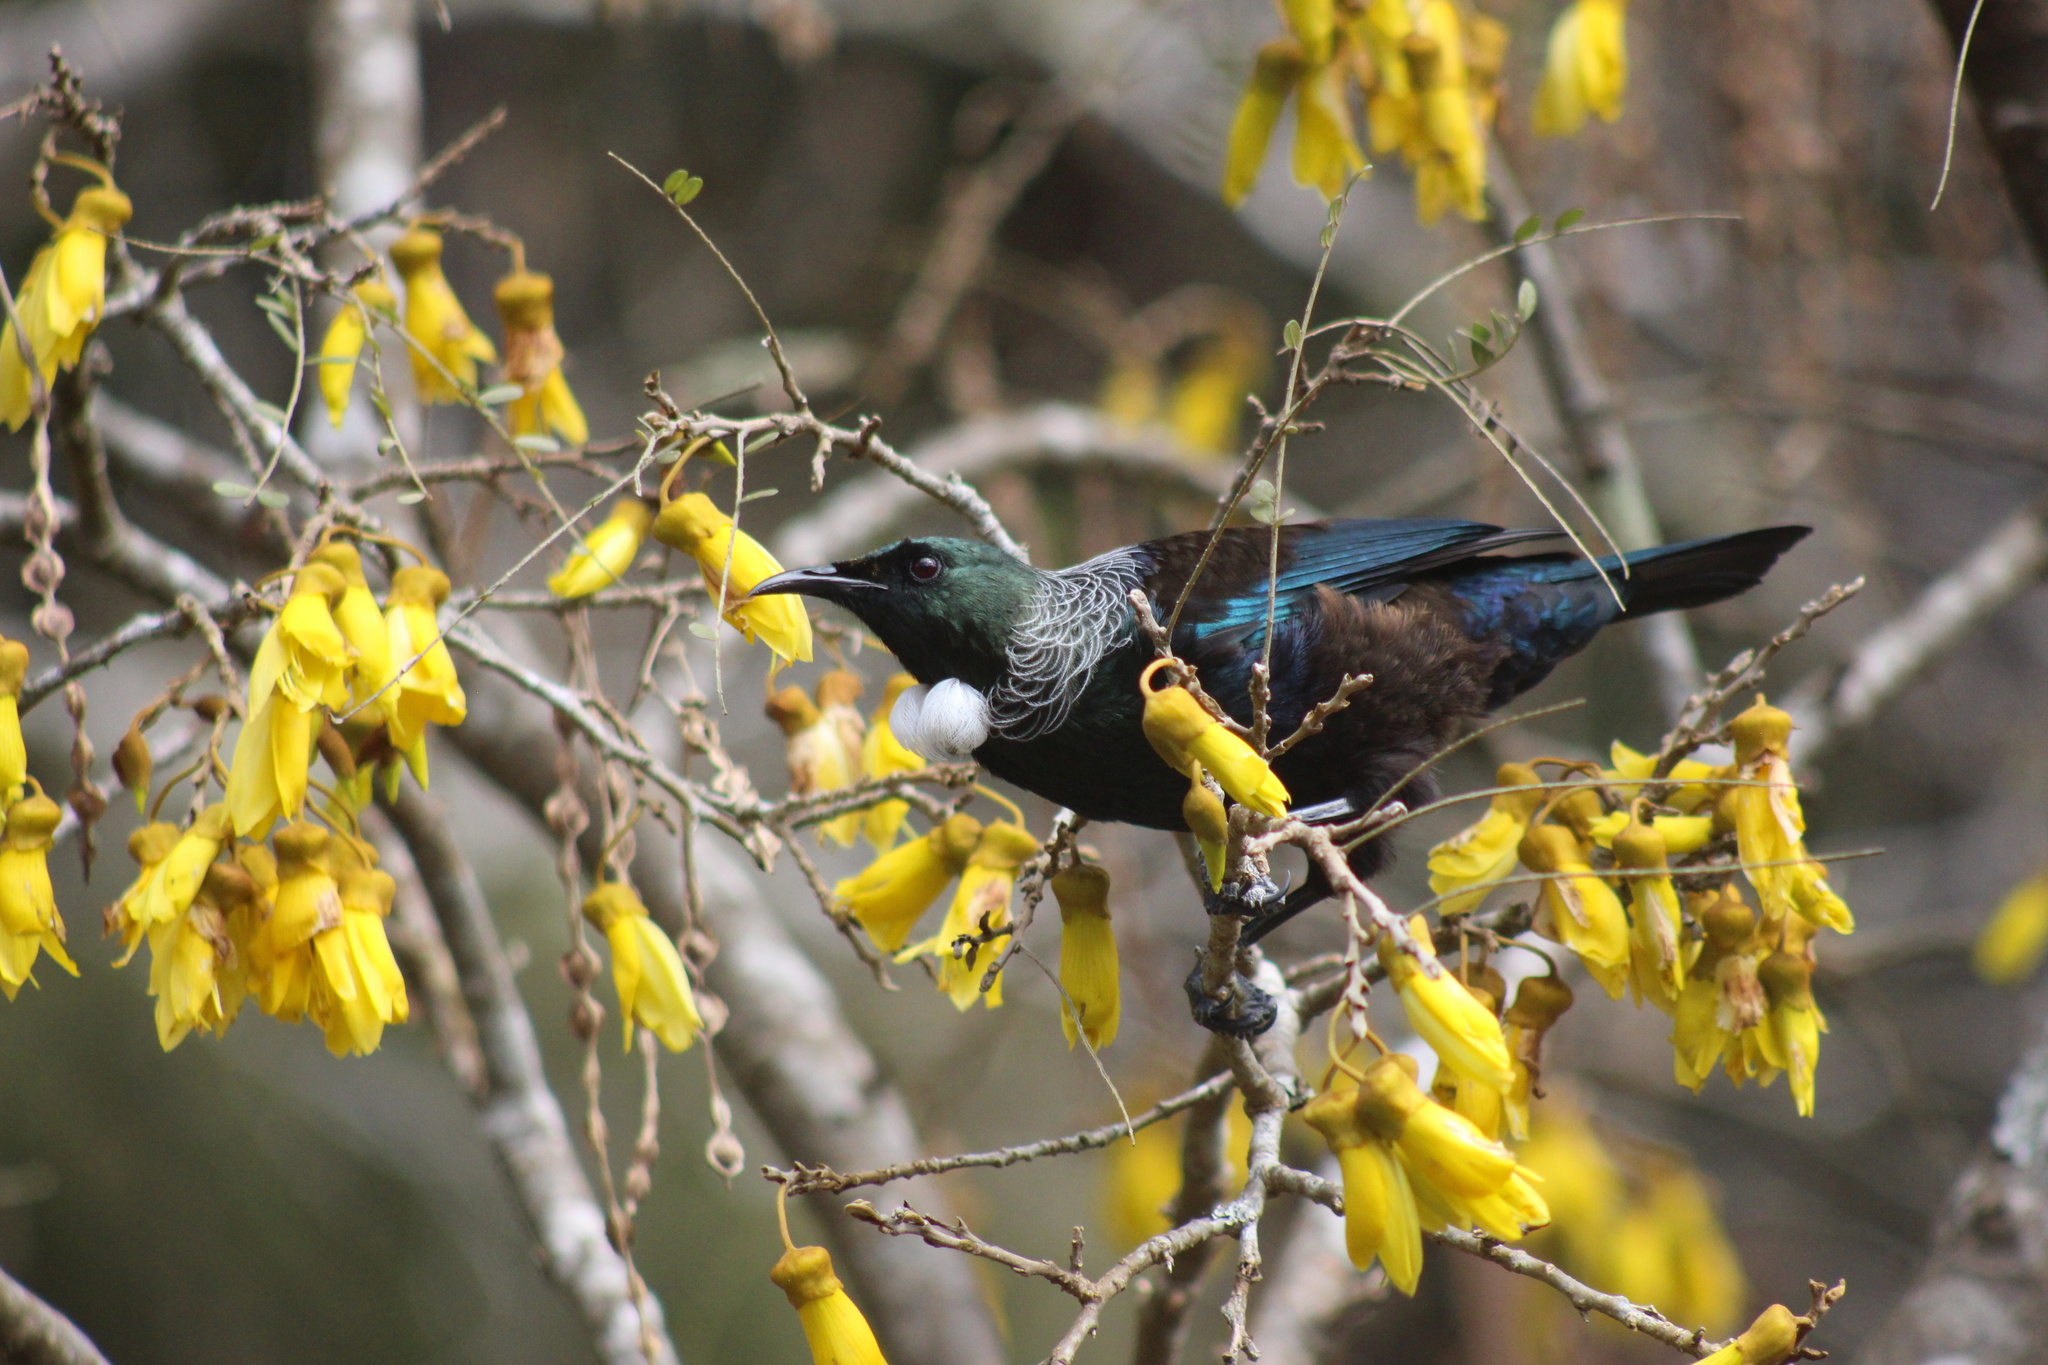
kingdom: Animalia
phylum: Chordata
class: Aves
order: Passeriformes
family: Meliphagidae
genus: Prosthemadera
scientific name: Prosthemadera novaeseelandiae
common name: Tui
